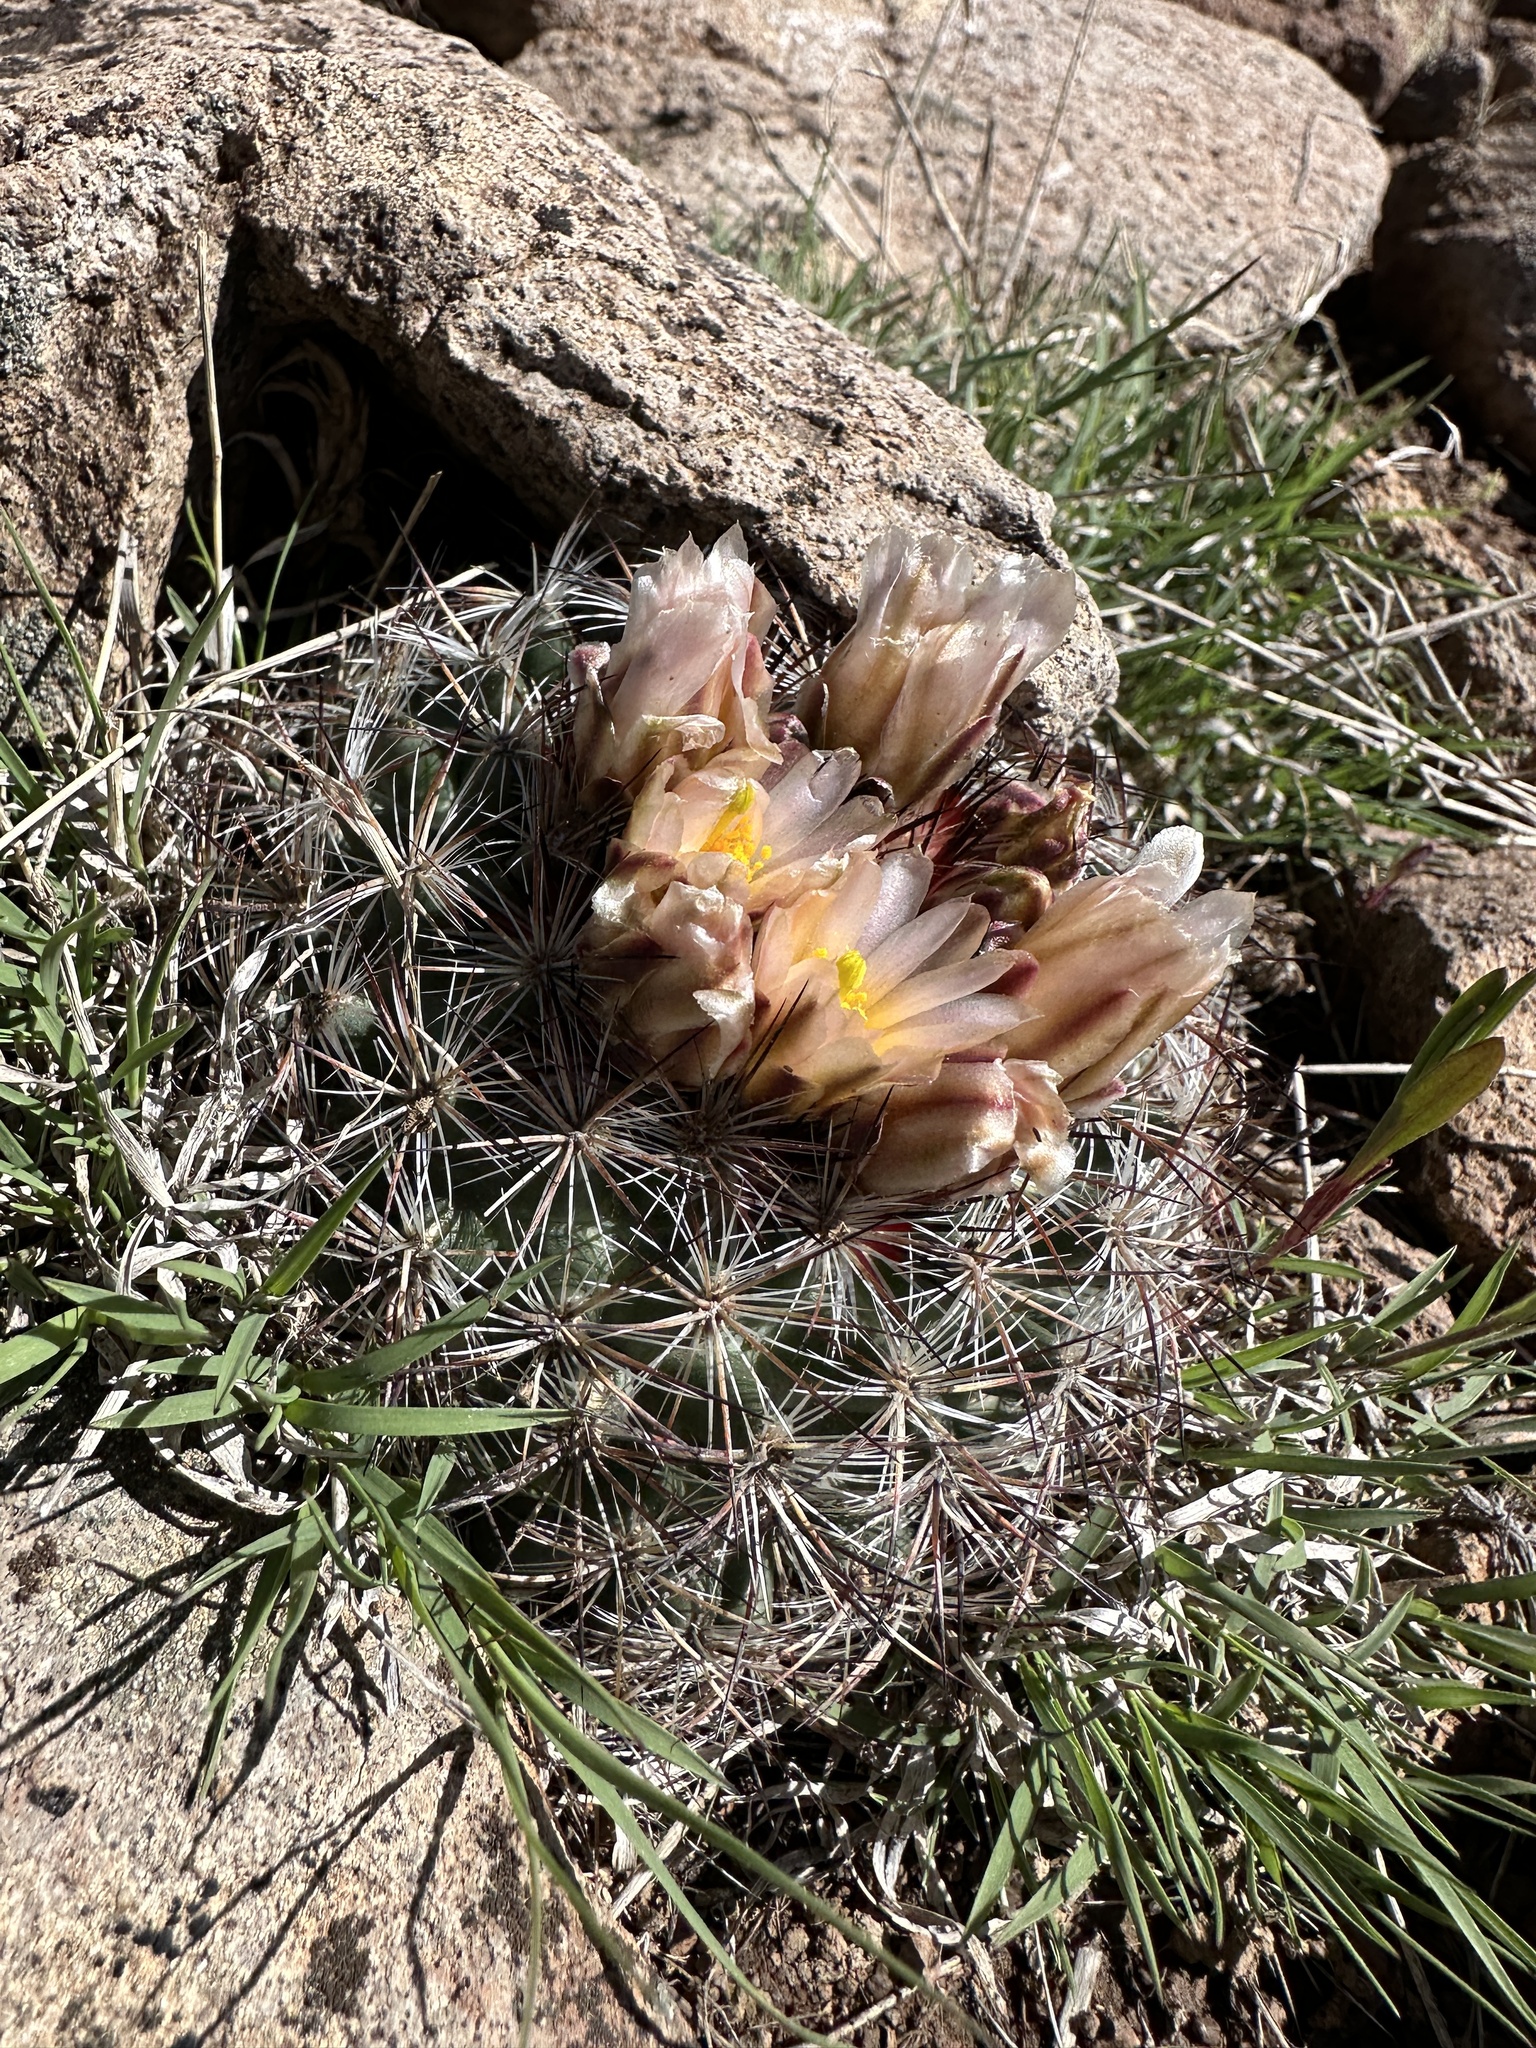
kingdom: Plantae
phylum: Tracheophyta
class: Magnoliopsida
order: Caryophyllales
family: Cactaceae
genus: Pediocactus
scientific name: Pediocactus simpsonii
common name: Simpson's hedgehog cactus
